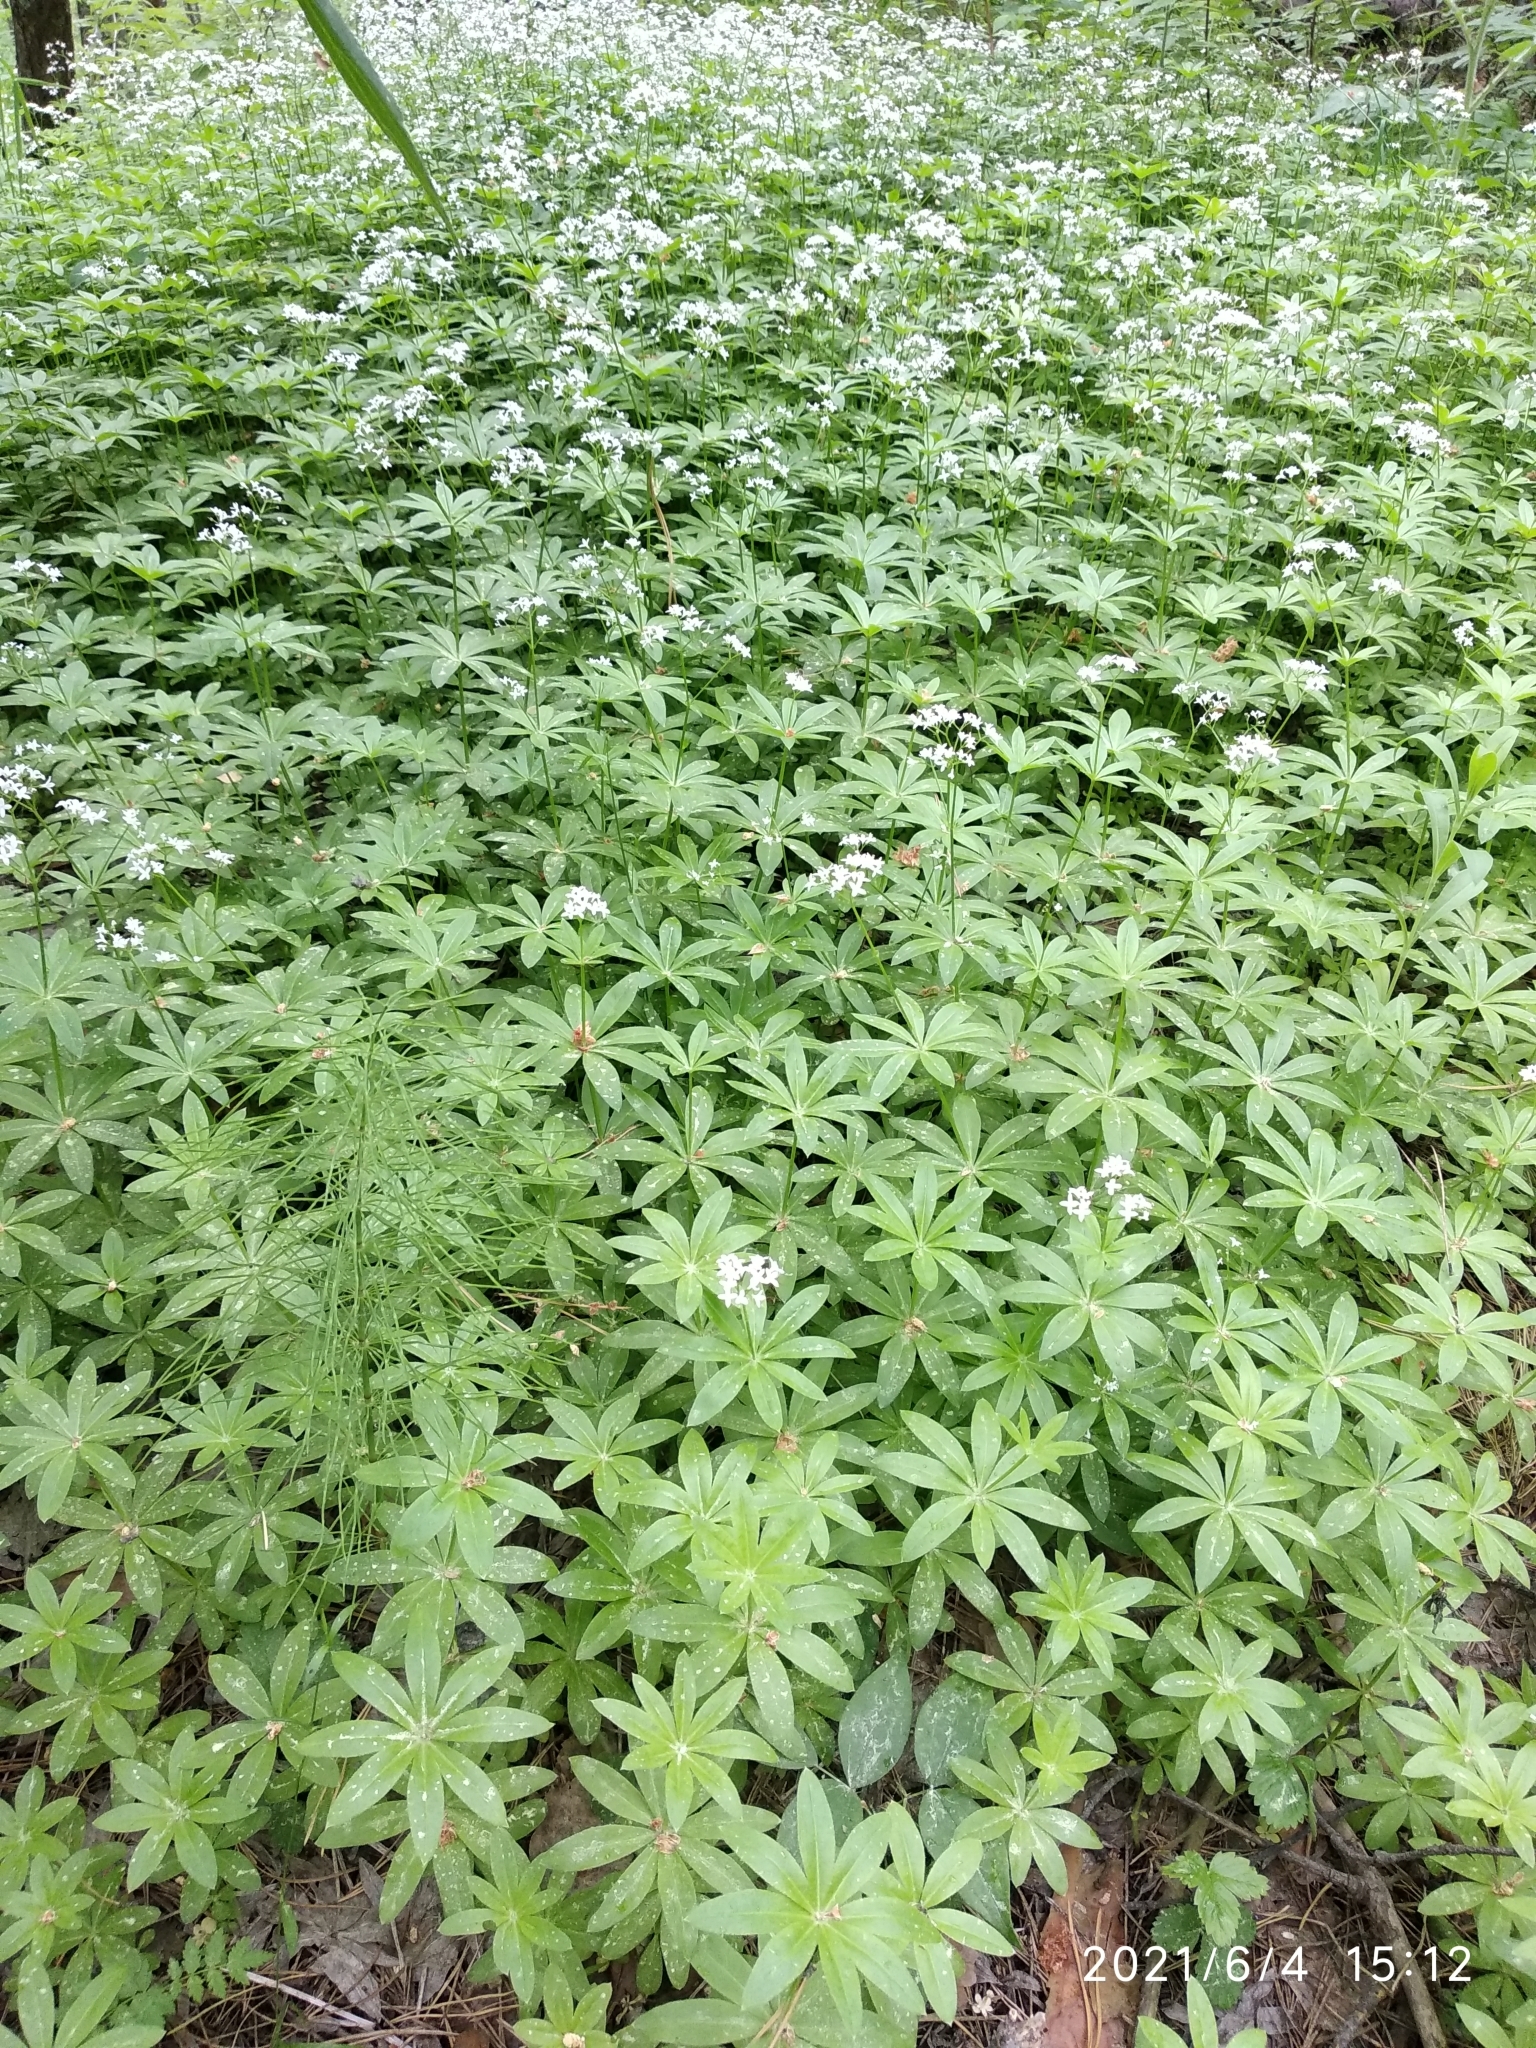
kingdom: Plantae
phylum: Tracheophyta
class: Magnoliopsida
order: Gentianales
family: Rubiaceae
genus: Galium
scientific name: Galium odoratum
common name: Sweet woodruff
